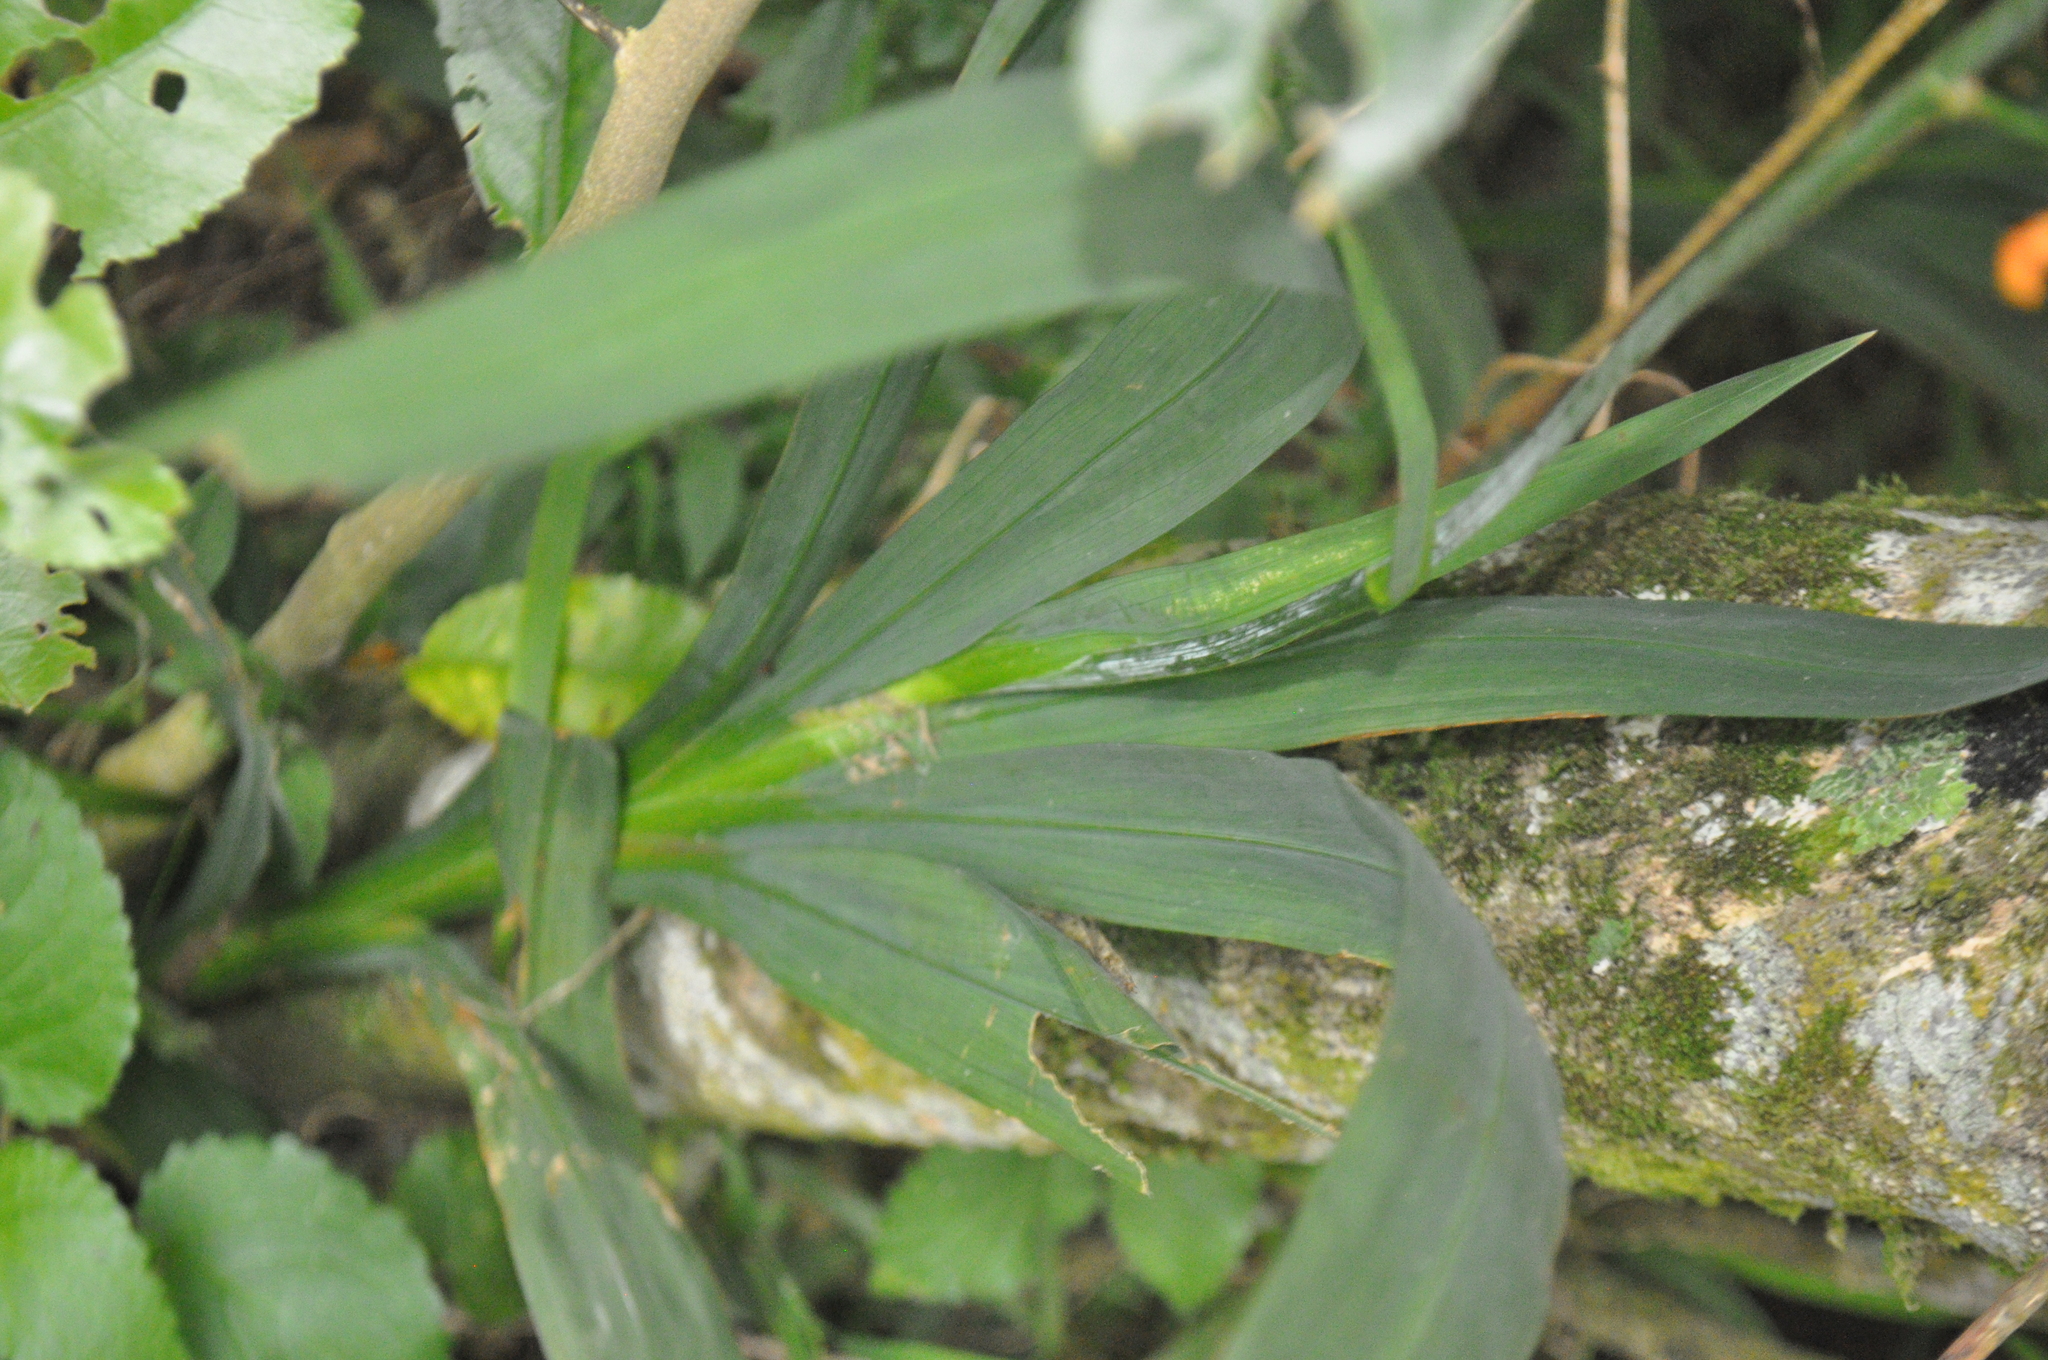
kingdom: Plantae
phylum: Tracheophyta
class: Liliopsida
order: Asparagales
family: Iridaceae
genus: Crocosmia
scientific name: Crocosmia crocosmiiflora
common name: Montbretia
